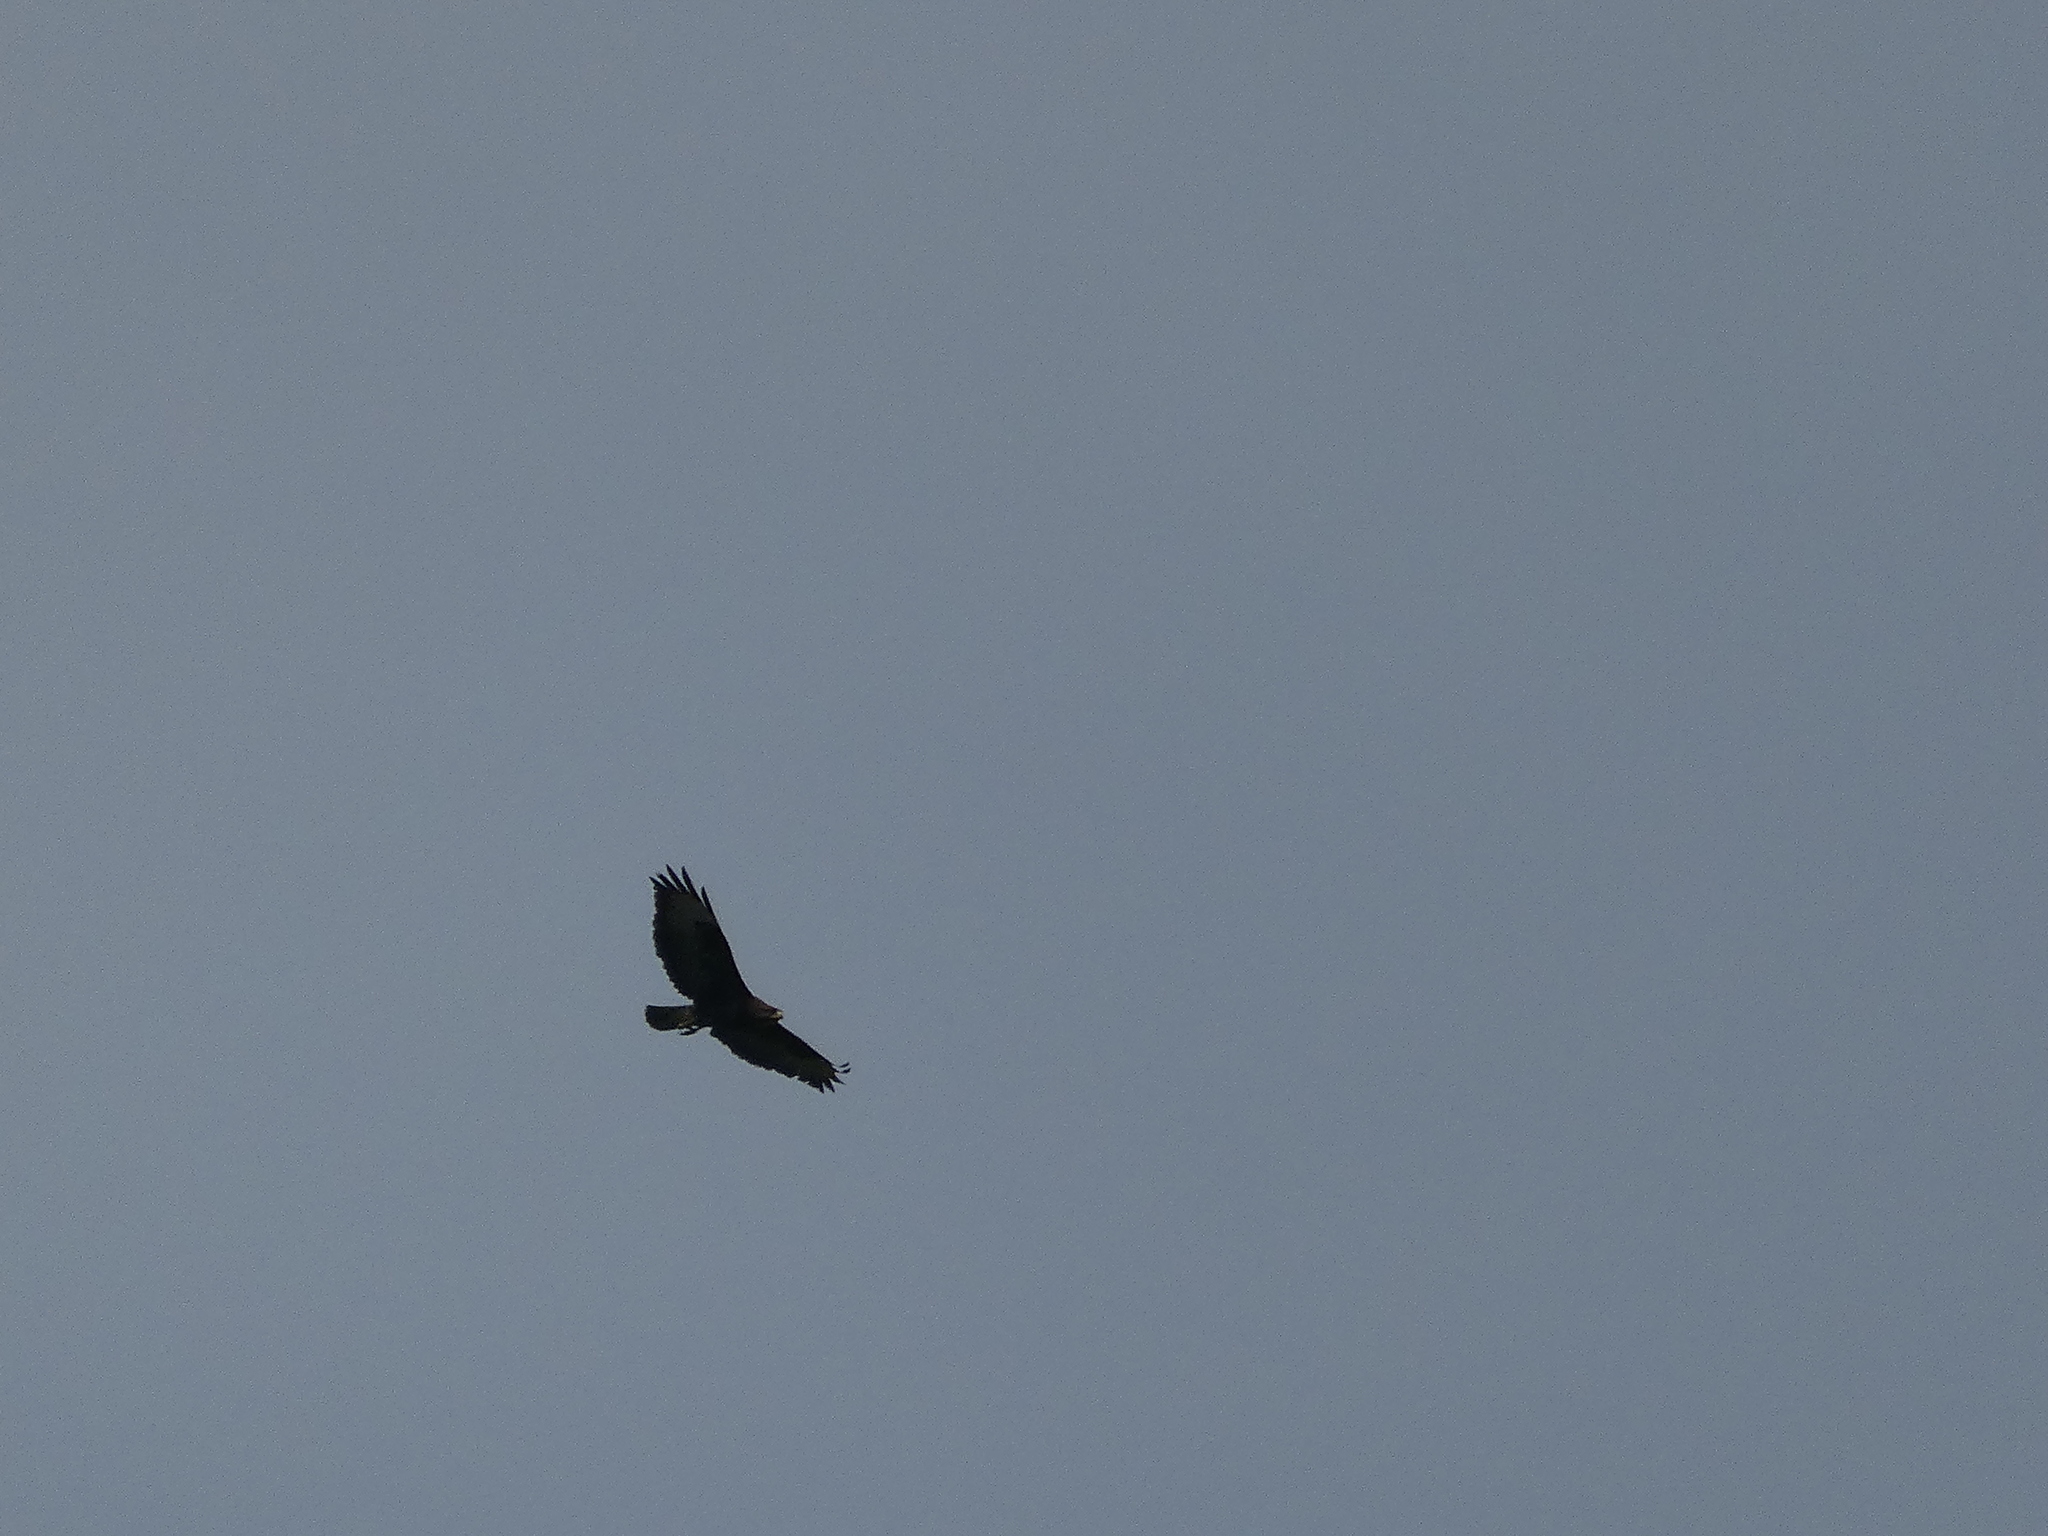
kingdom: Animalia
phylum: Chordata
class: Aves
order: Accipitriformes
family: Accipitridae
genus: Buteo
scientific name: Buteo buteo
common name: Common buzzard
